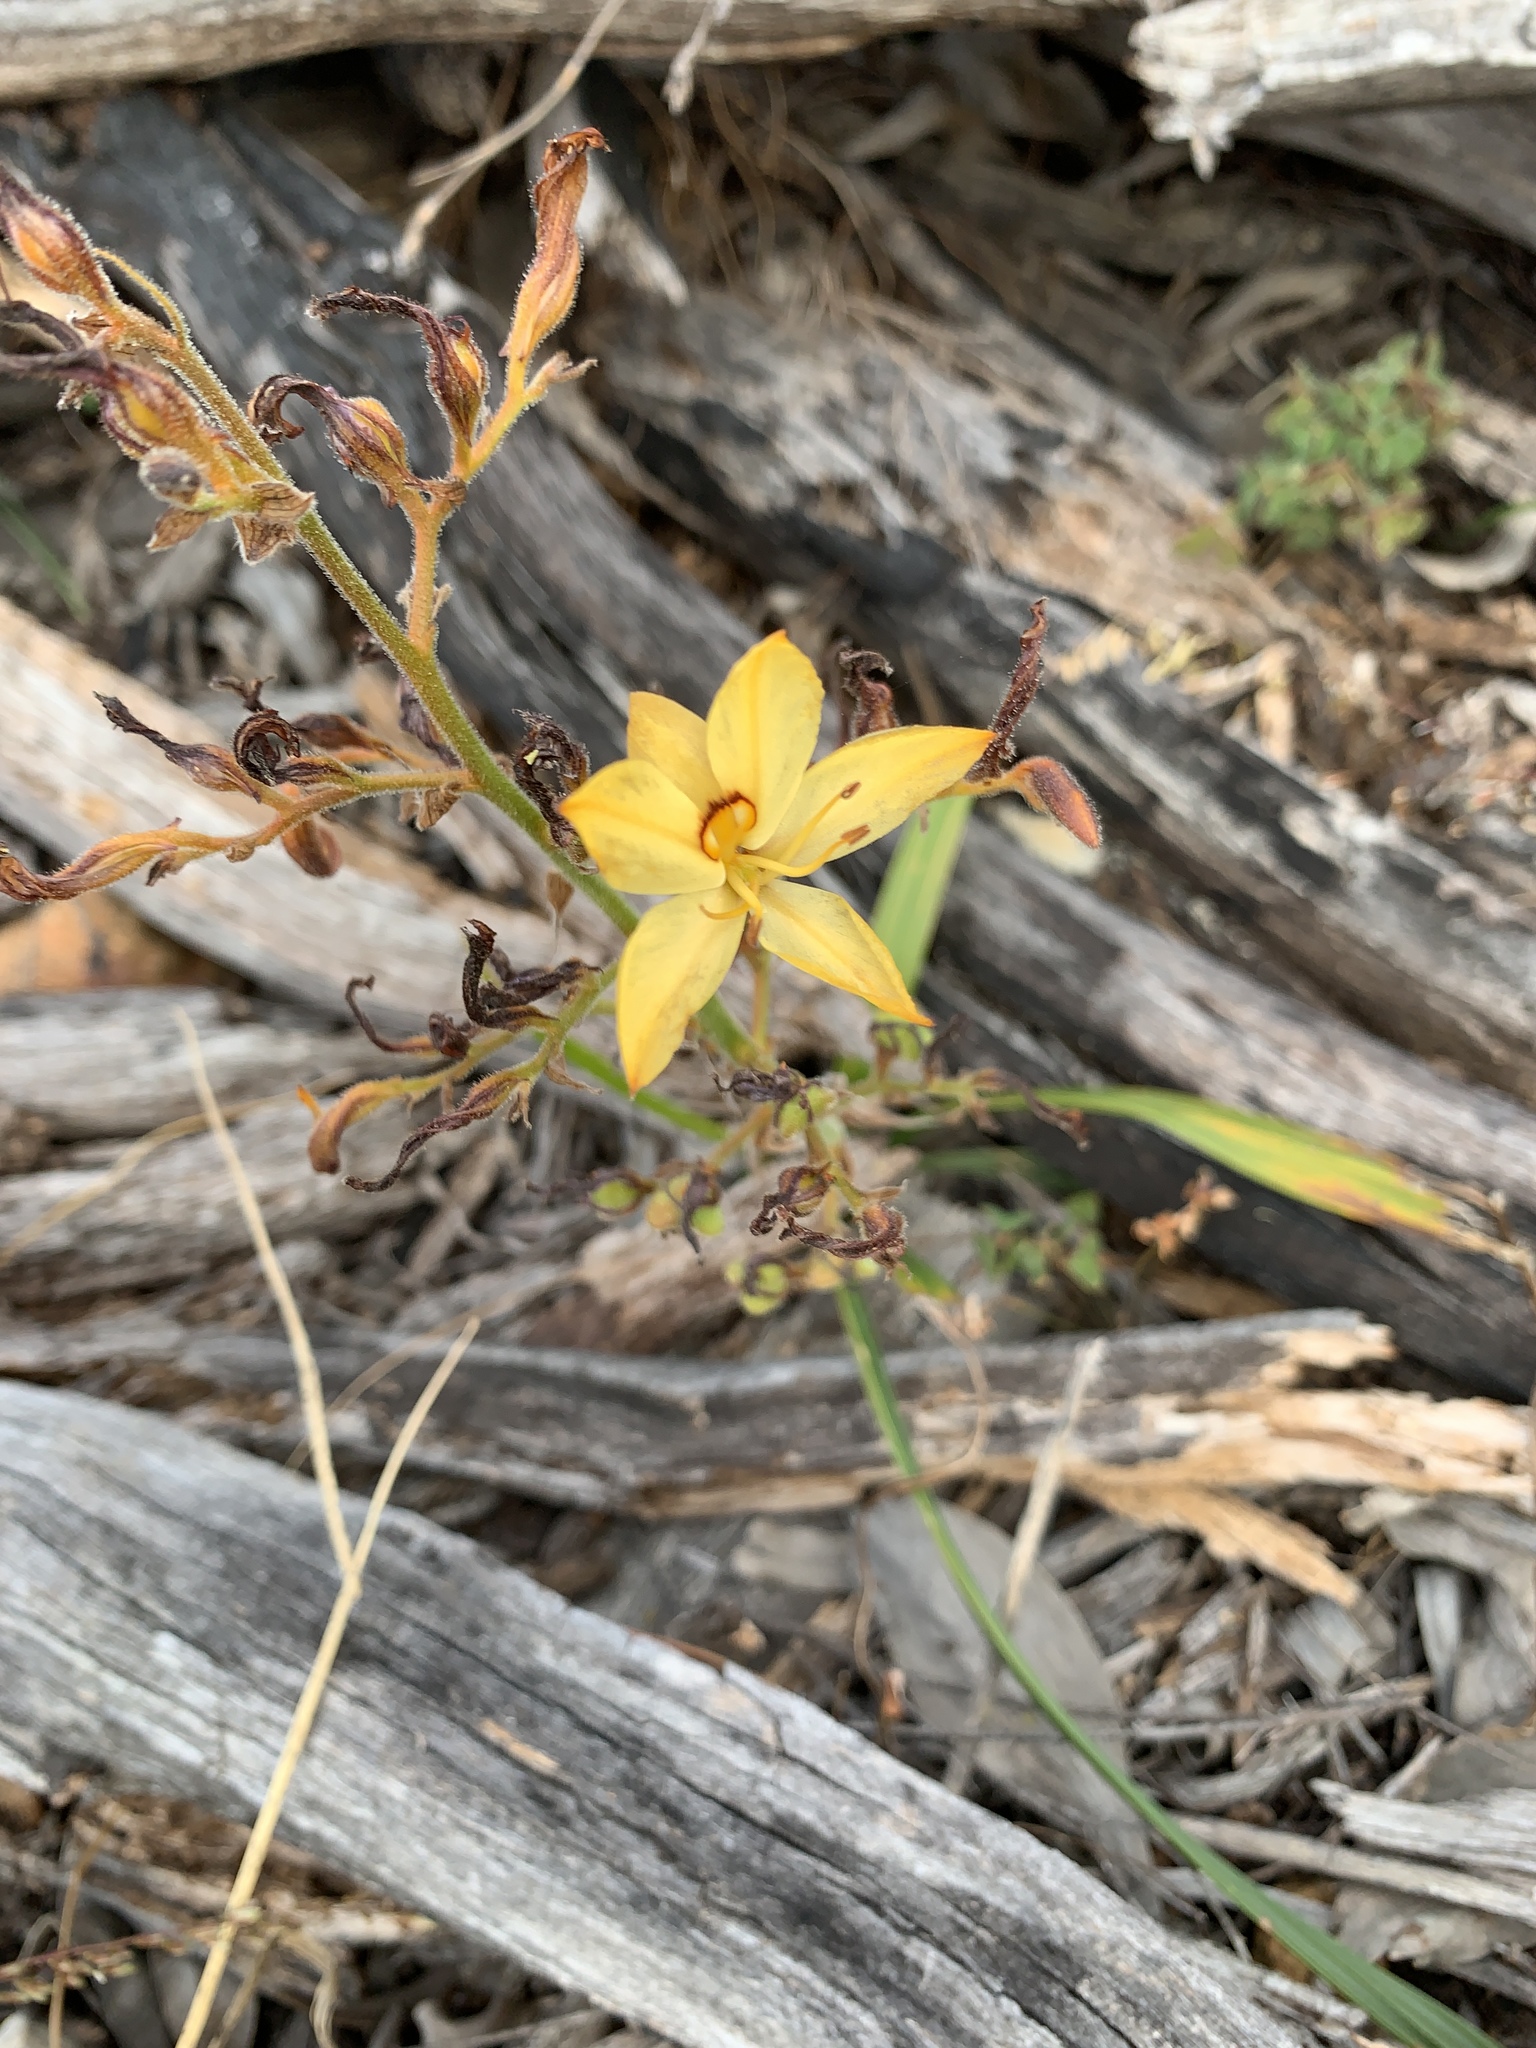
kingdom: Plantae
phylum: Tracheophyta
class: Liliopsida
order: Commelinales
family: Haemodoraceae
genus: Wachendorfia
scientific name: Wachendorfia paniculata
